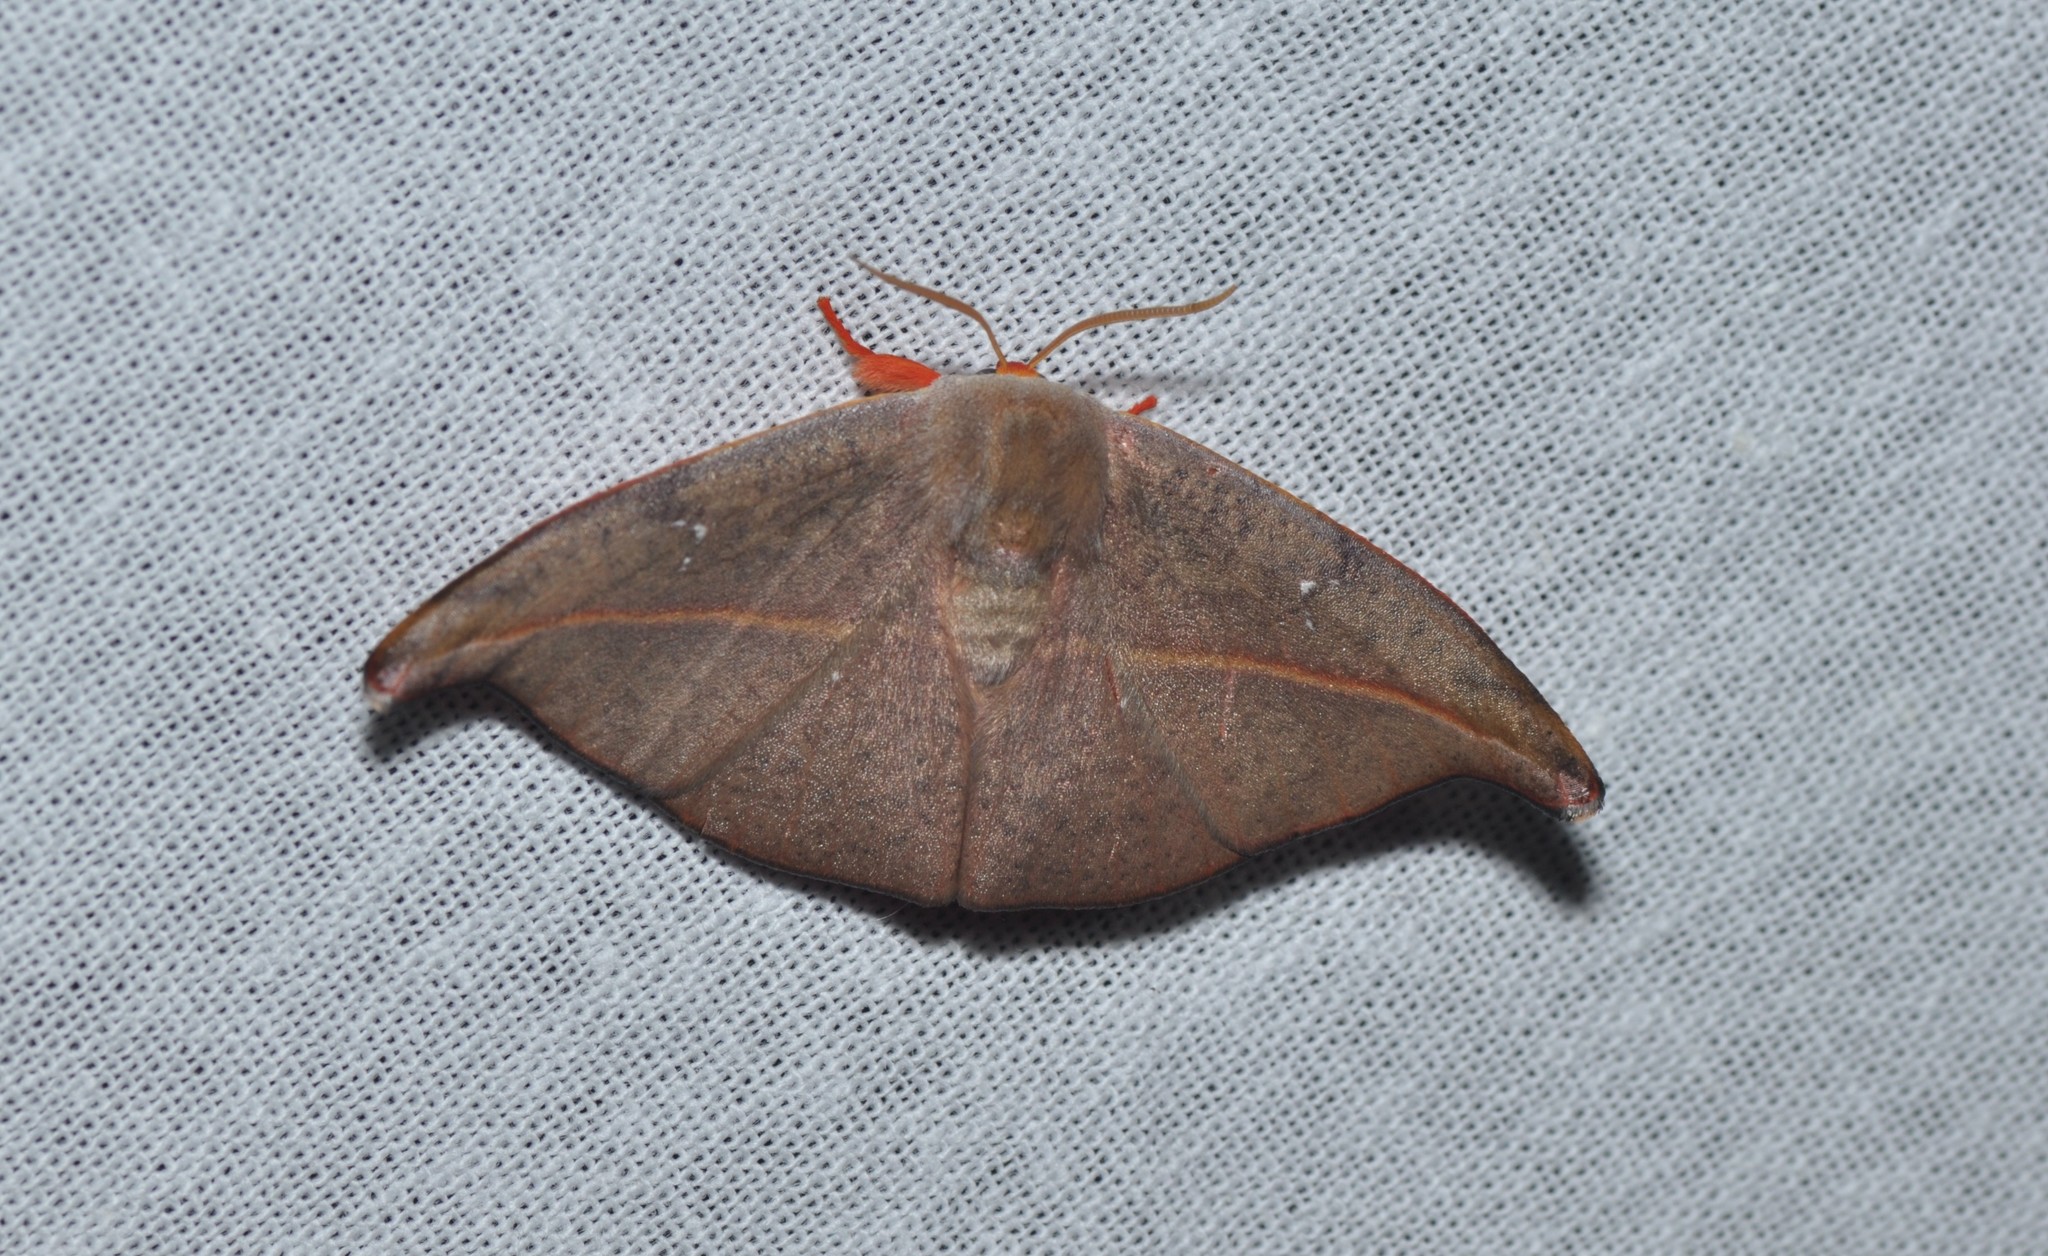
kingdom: Animalia
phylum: Arthropoda
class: Insecta
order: Lepidoptera
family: Drepanidae
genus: Oreta
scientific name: Oreta bicolor
